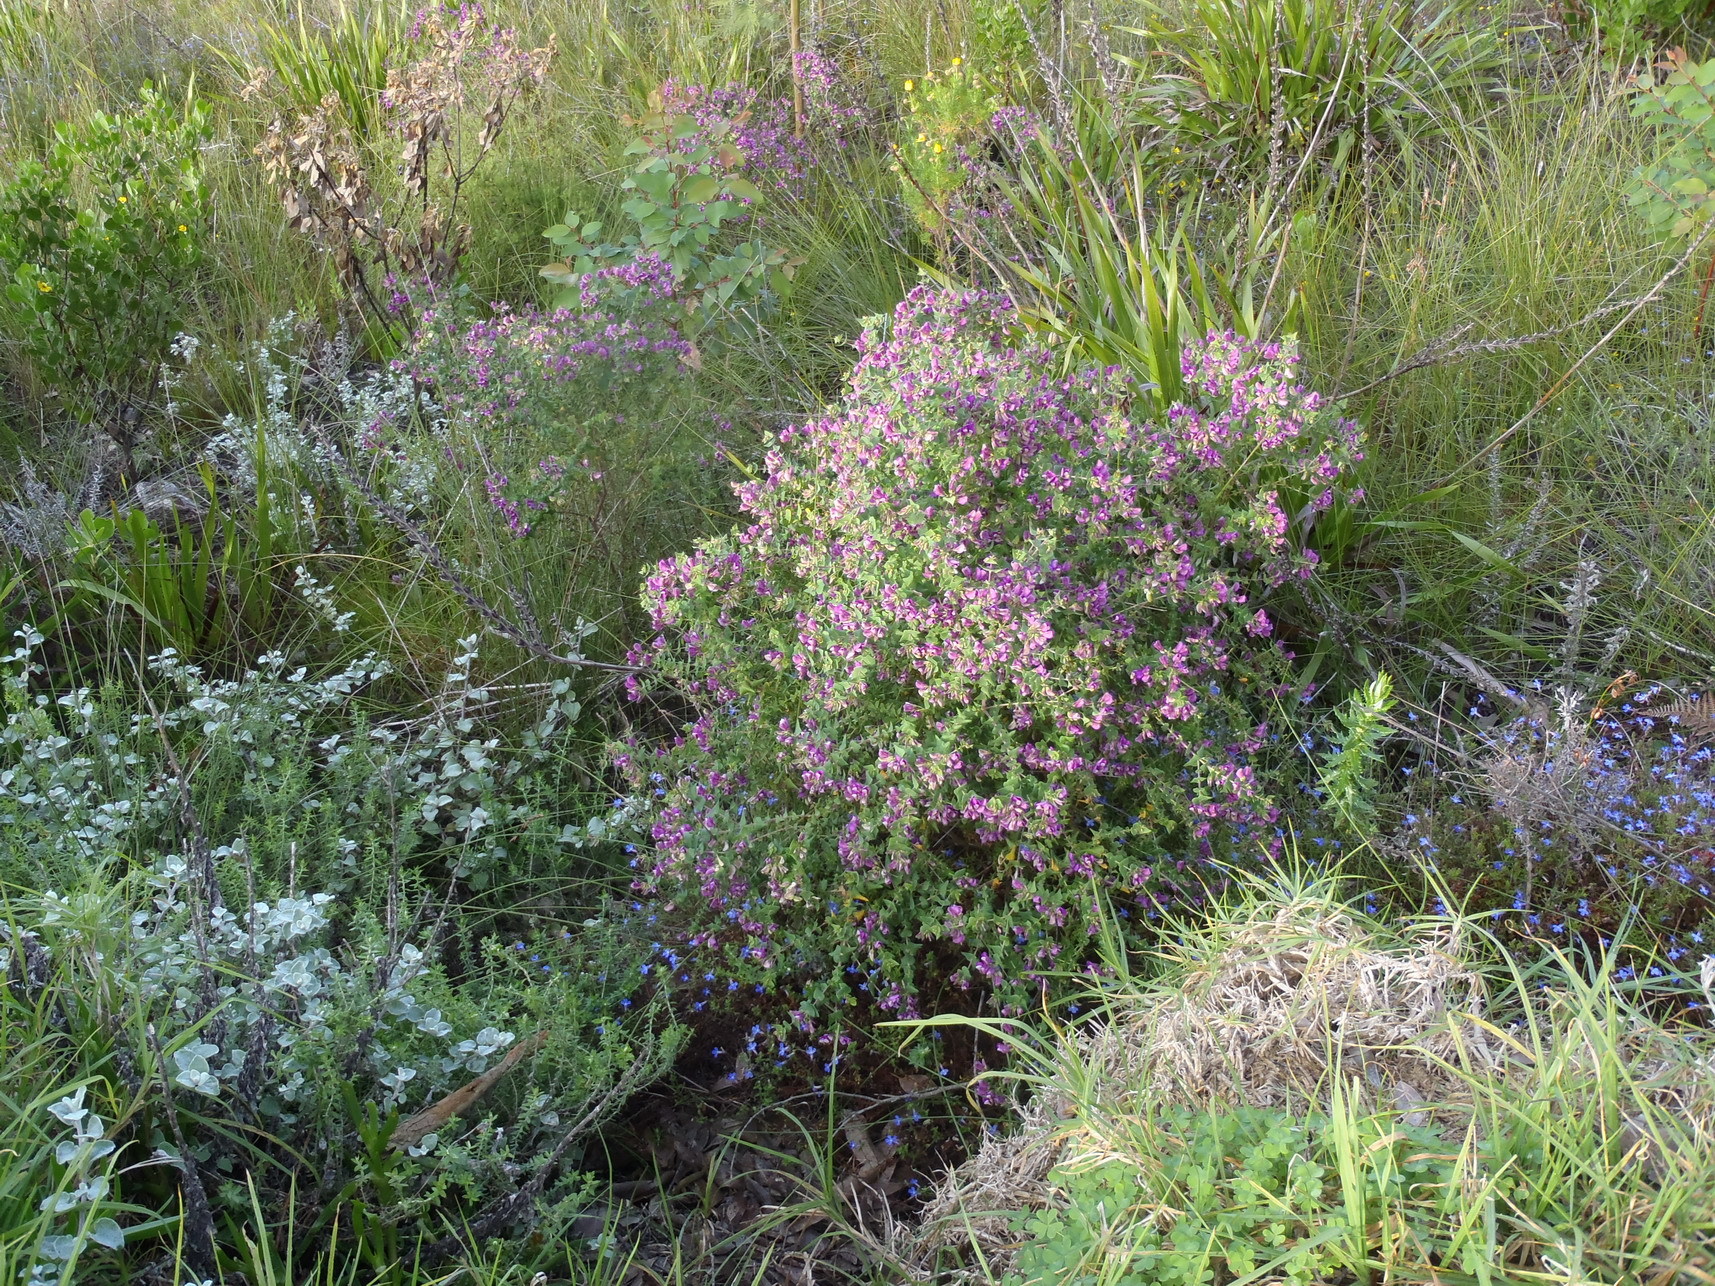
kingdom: Plantae
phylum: Tracheophyta
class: Magnoliopsida
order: Fabales
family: Polygalaceae
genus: Polygala
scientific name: Polygala fruticosa
